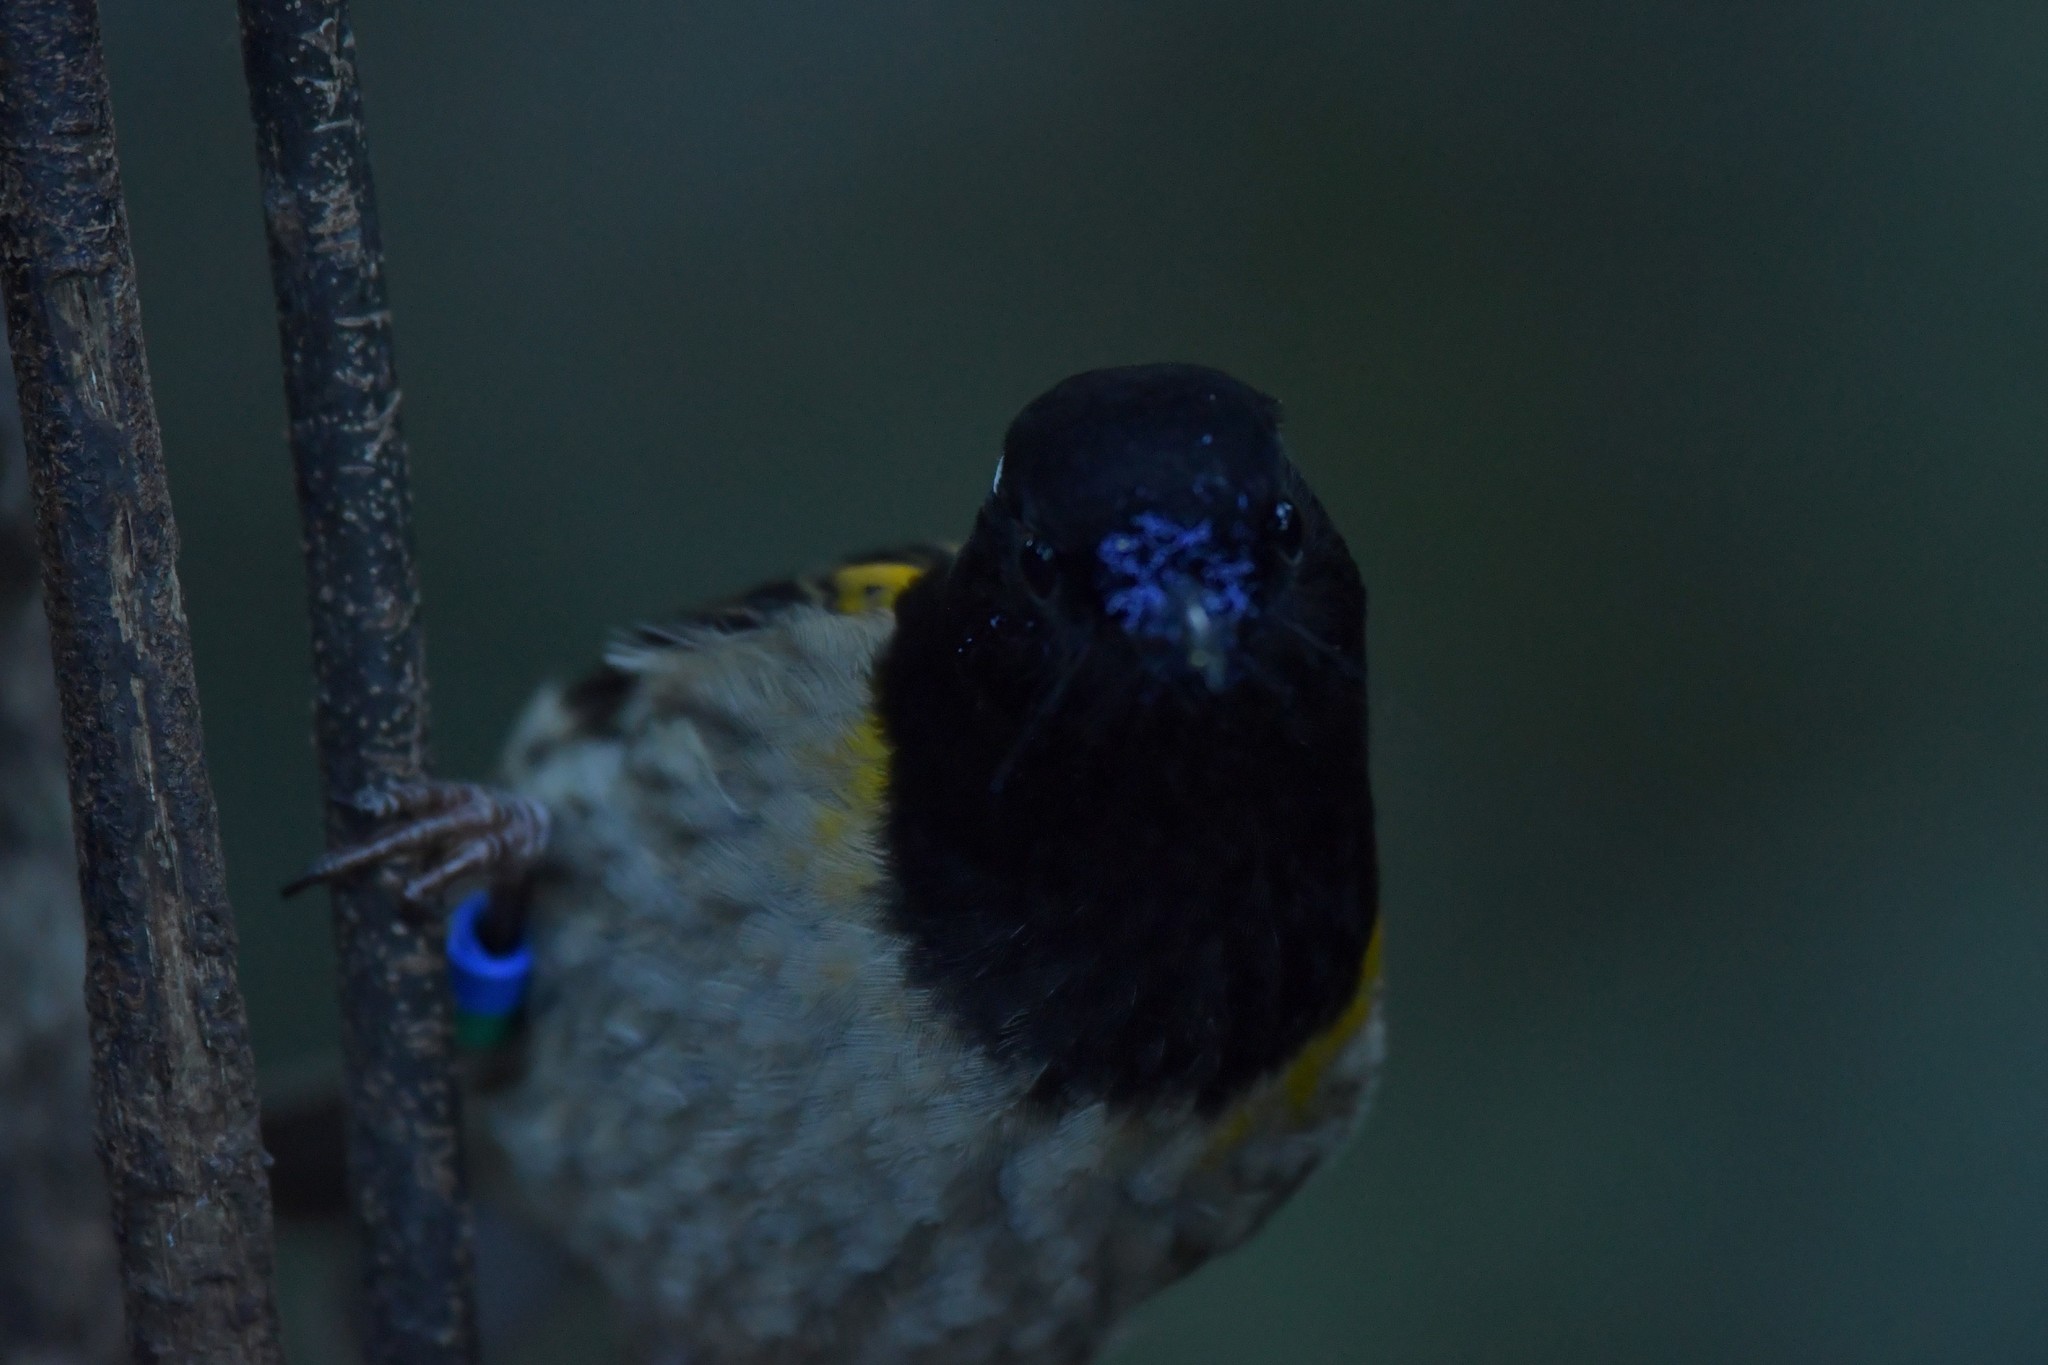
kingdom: Animalia
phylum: Chordata
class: Aves
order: Passeriformes
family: Notiomystidae
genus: Notiomystis
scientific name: Notiomystis cincta
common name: Stitchbird
